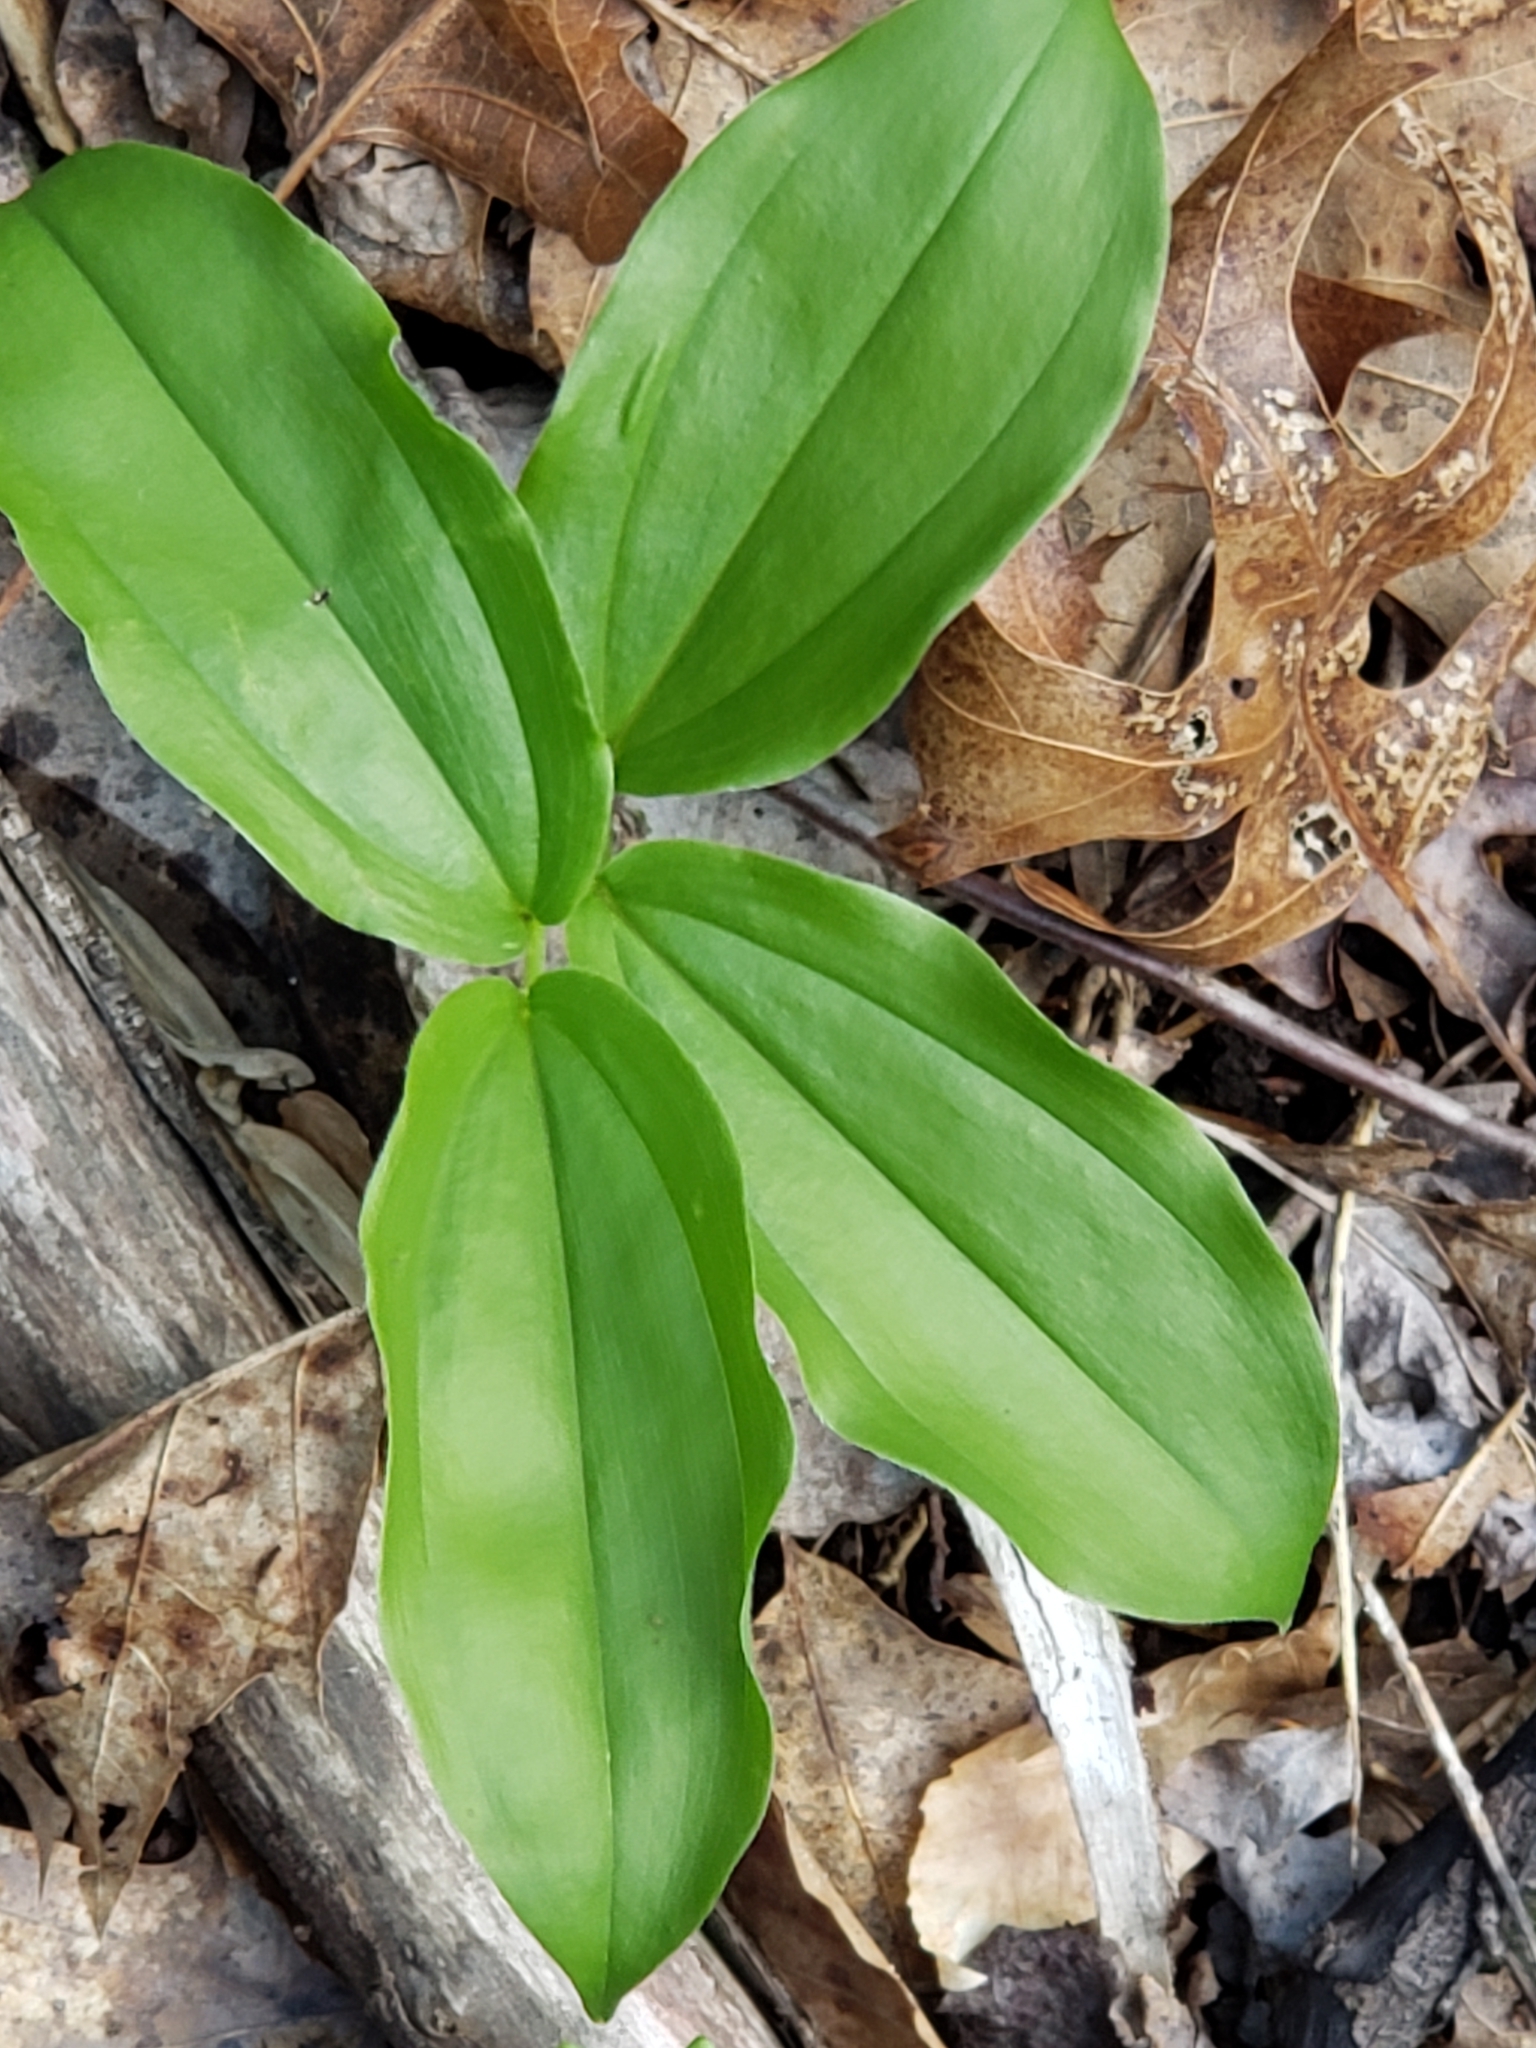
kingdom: Plantae
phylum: Tracheophyta
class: Liliopsida
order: Asparagales
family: Asparagaceae
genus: Maianthemum
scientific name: Maianthemum racemosum
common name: False spikenard
